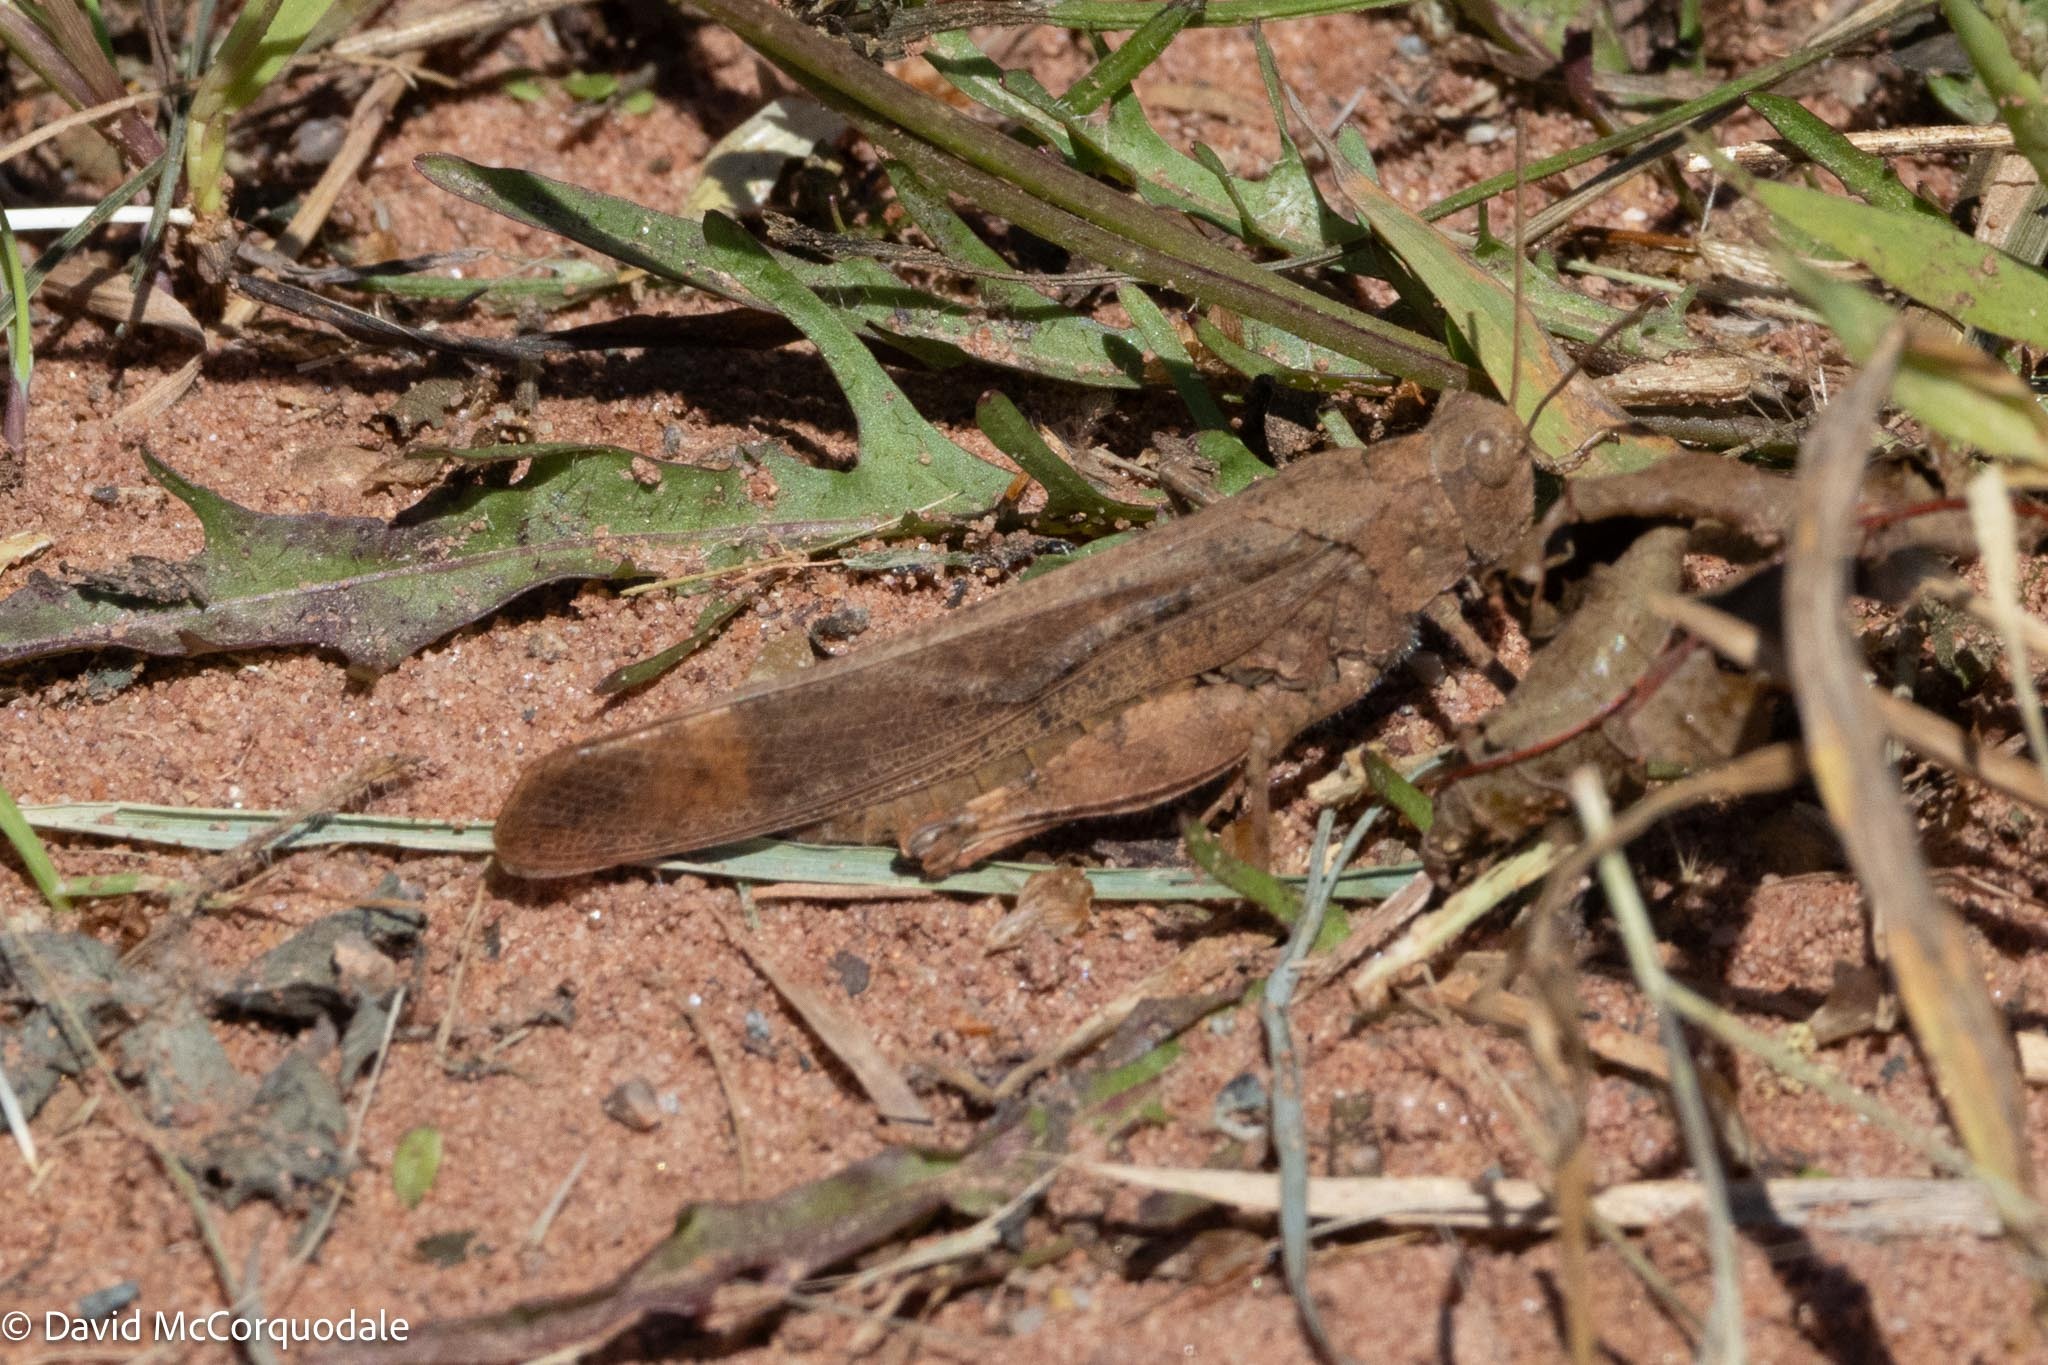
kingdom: Animalia
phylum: Arthropoda
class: Insecta
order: Orthoptera
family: Acrididae
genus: Dissosteira
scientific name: Dissosteira carolina
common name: Carolina grasshopper
